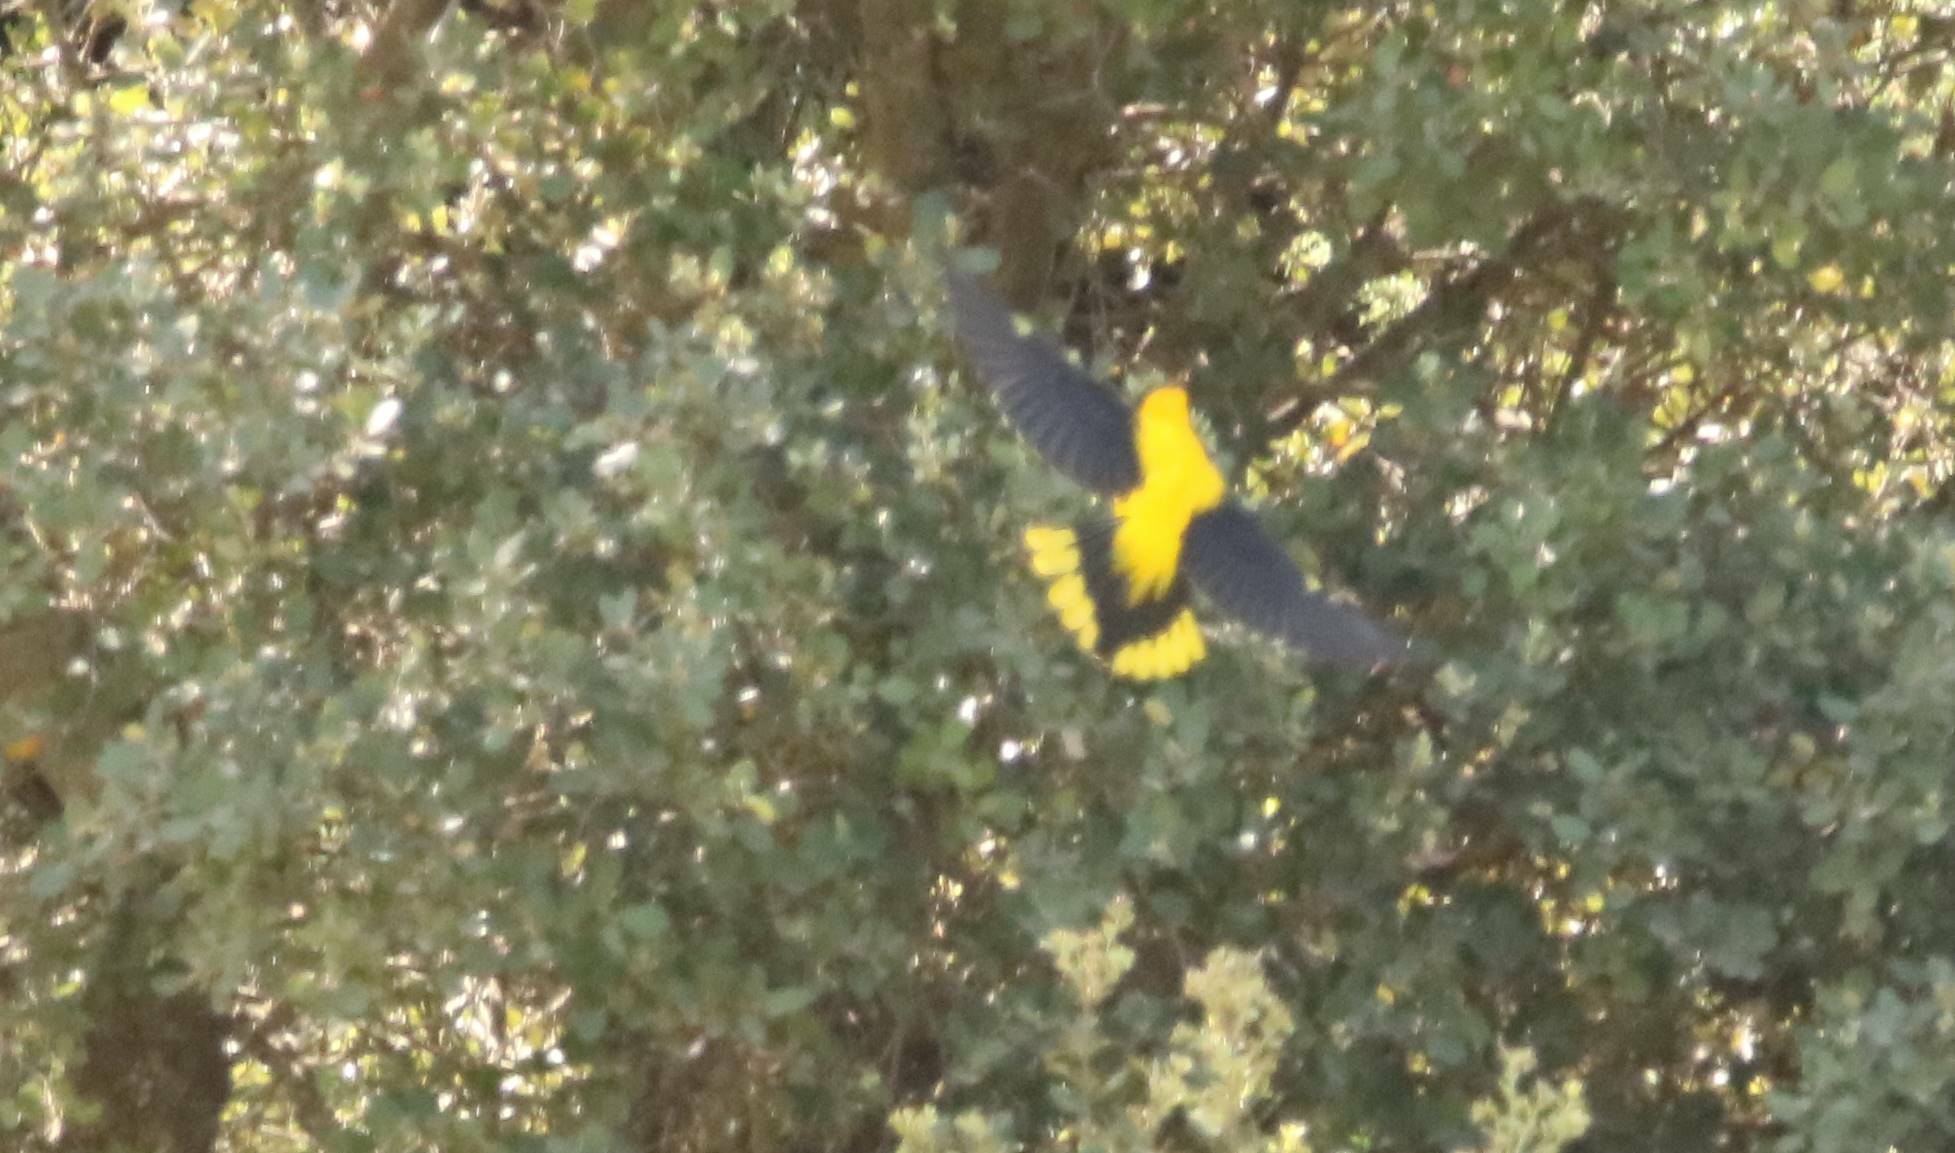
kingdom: Animalia
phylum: Chordata
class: Aves
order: Passeriformes
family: Oriolidae
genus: Oriolus
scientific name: Oriolus oriolus
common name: Eurasian golden oriole
